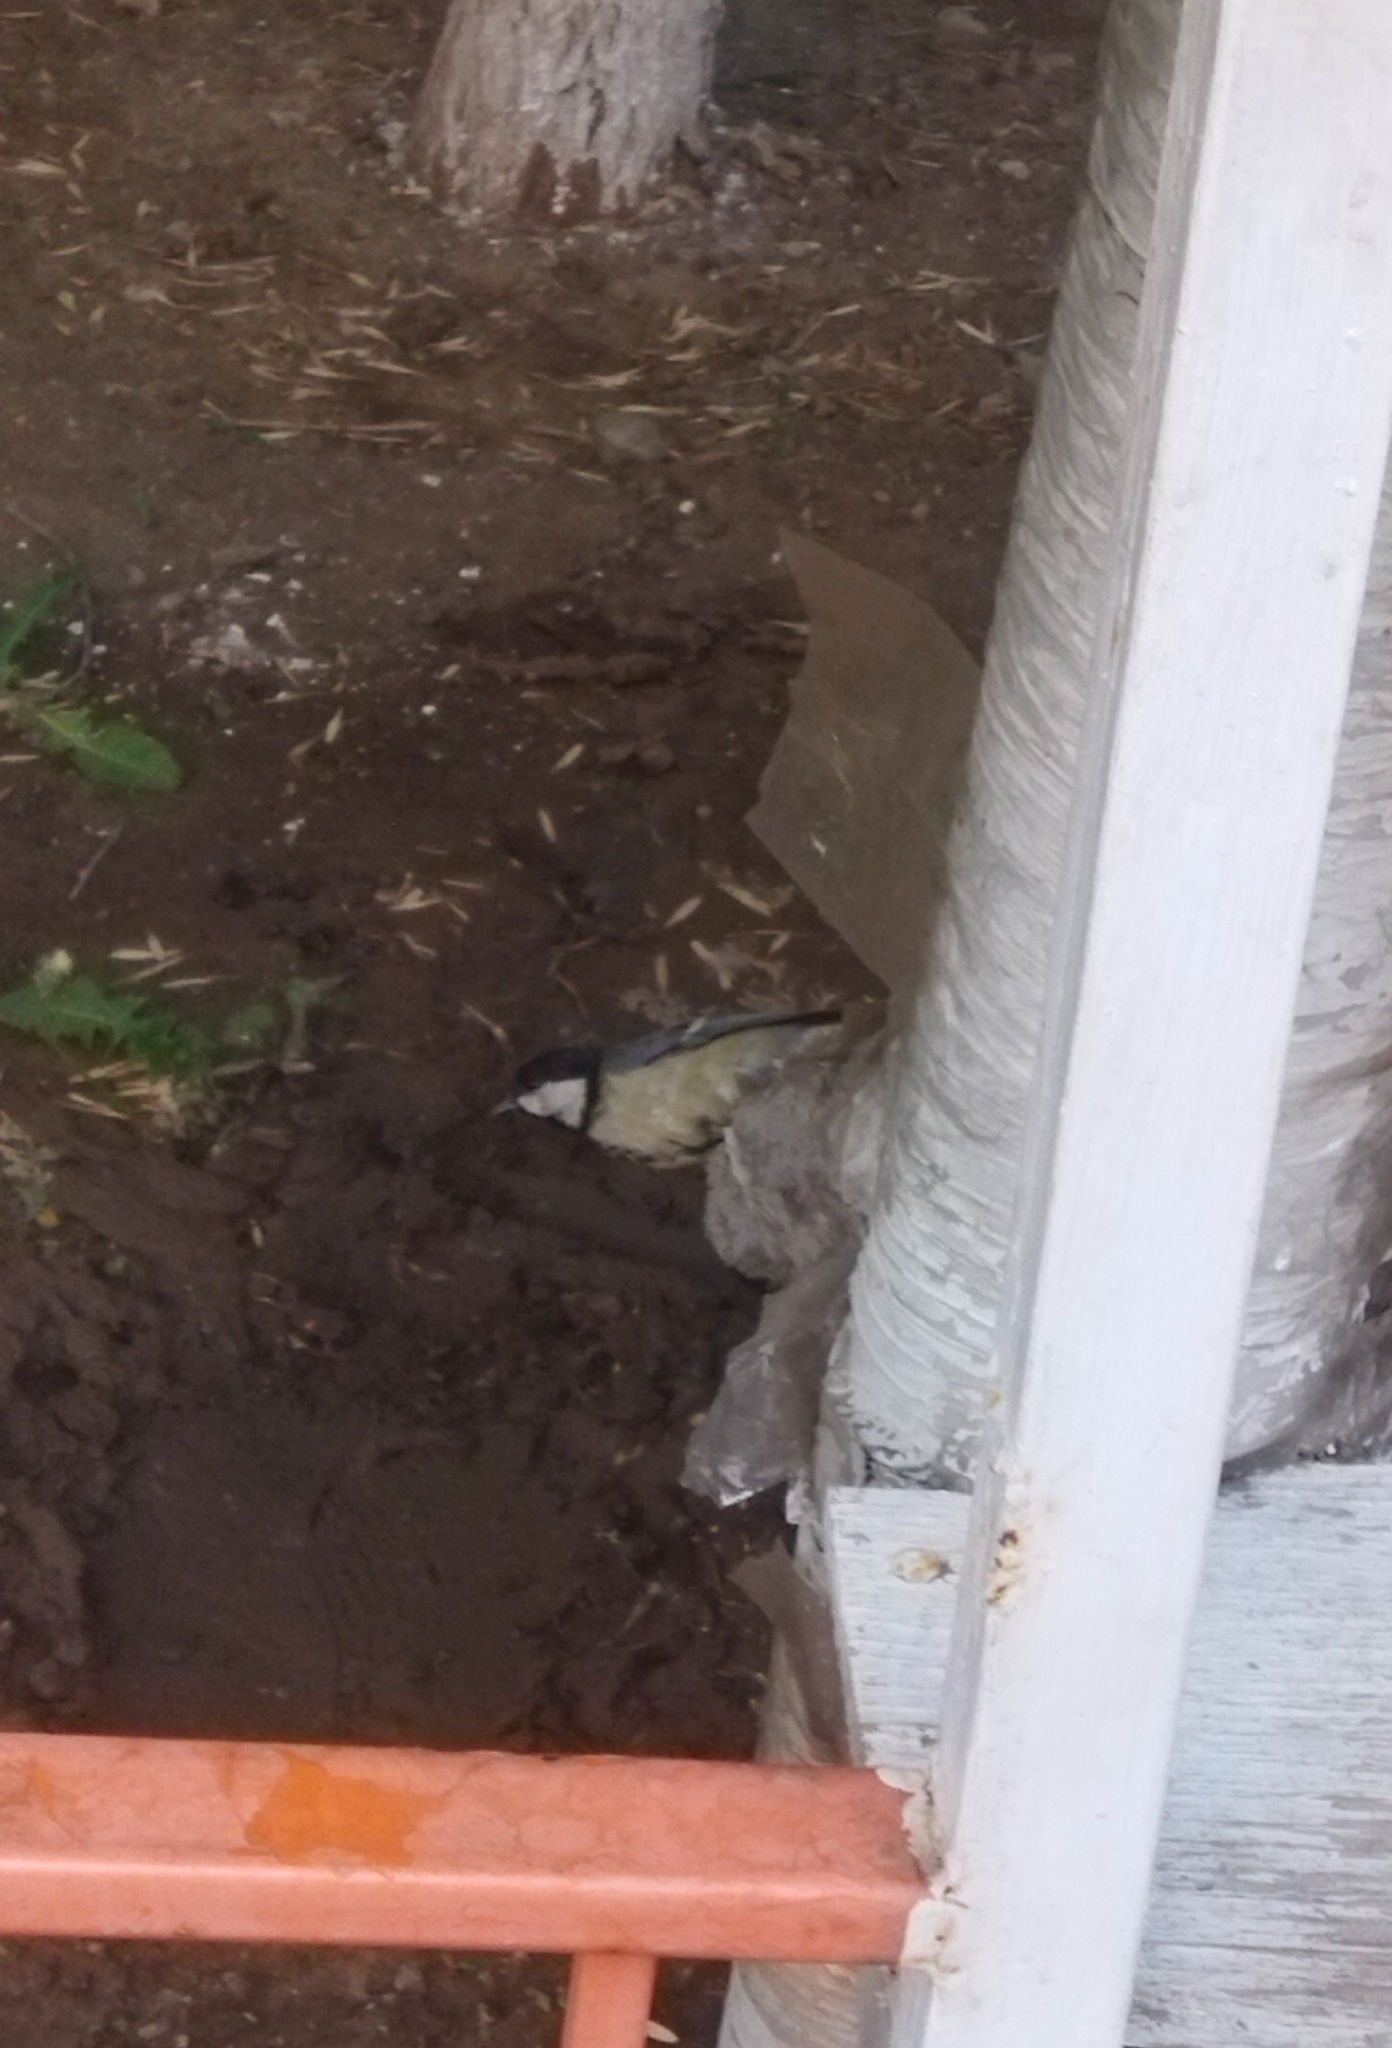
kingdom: Animalia
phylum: Chordata
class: Aves
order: Passeriformes
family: Paridae
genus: Parus
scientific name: Parus major
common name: Great tit
